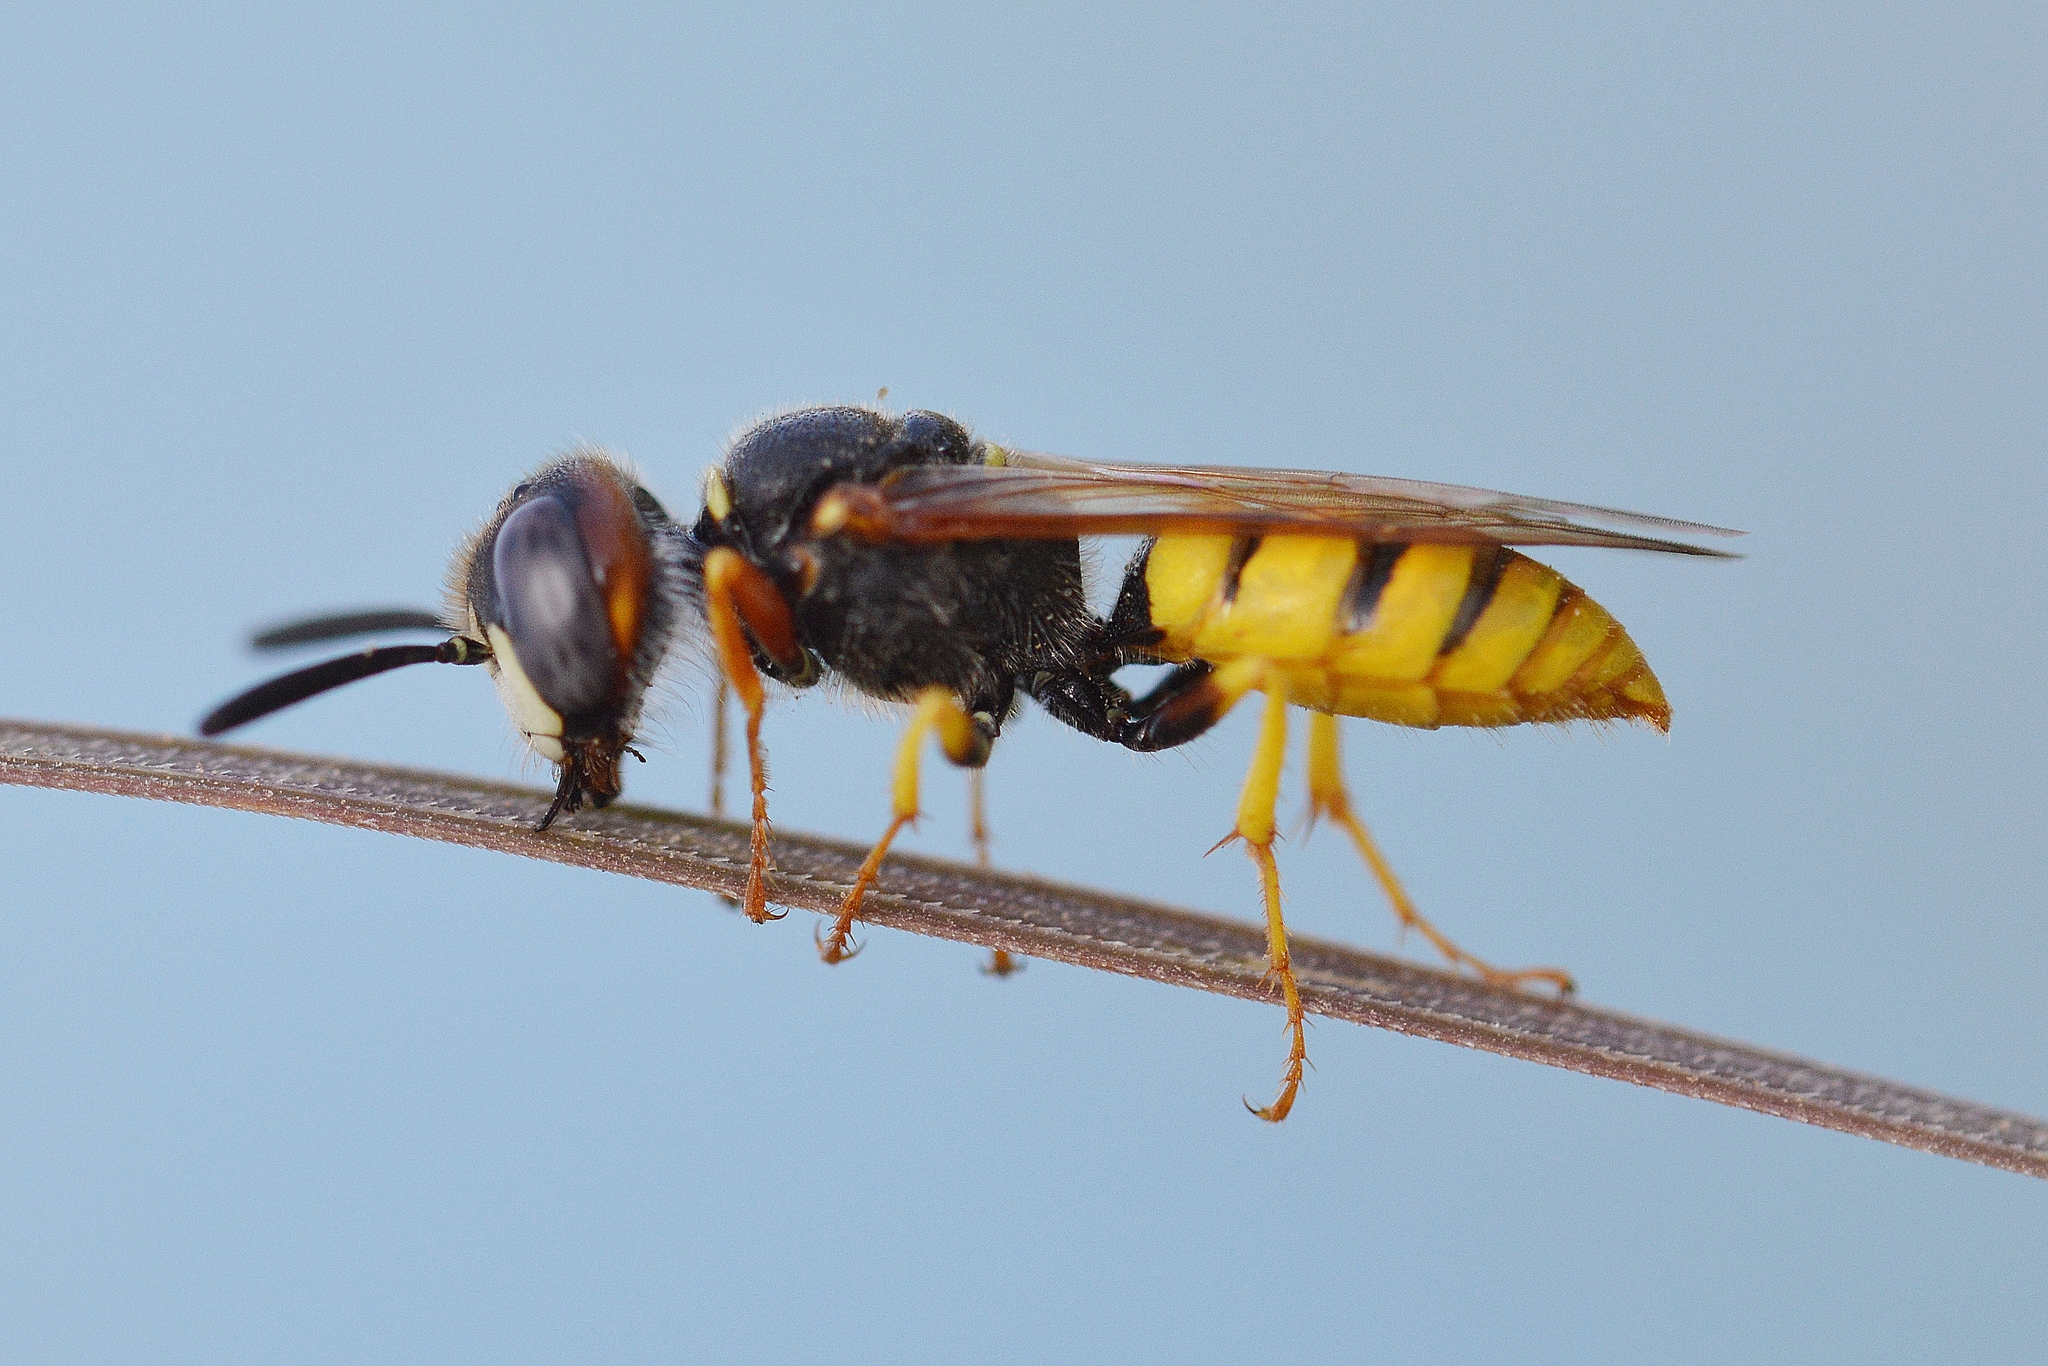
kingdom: Animalia
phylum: Arthropoda
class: Insecta
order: Hymenoptera
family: Crabronidae
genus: Philanthus
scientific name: Philanthus triangulum
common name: Bee wolf
